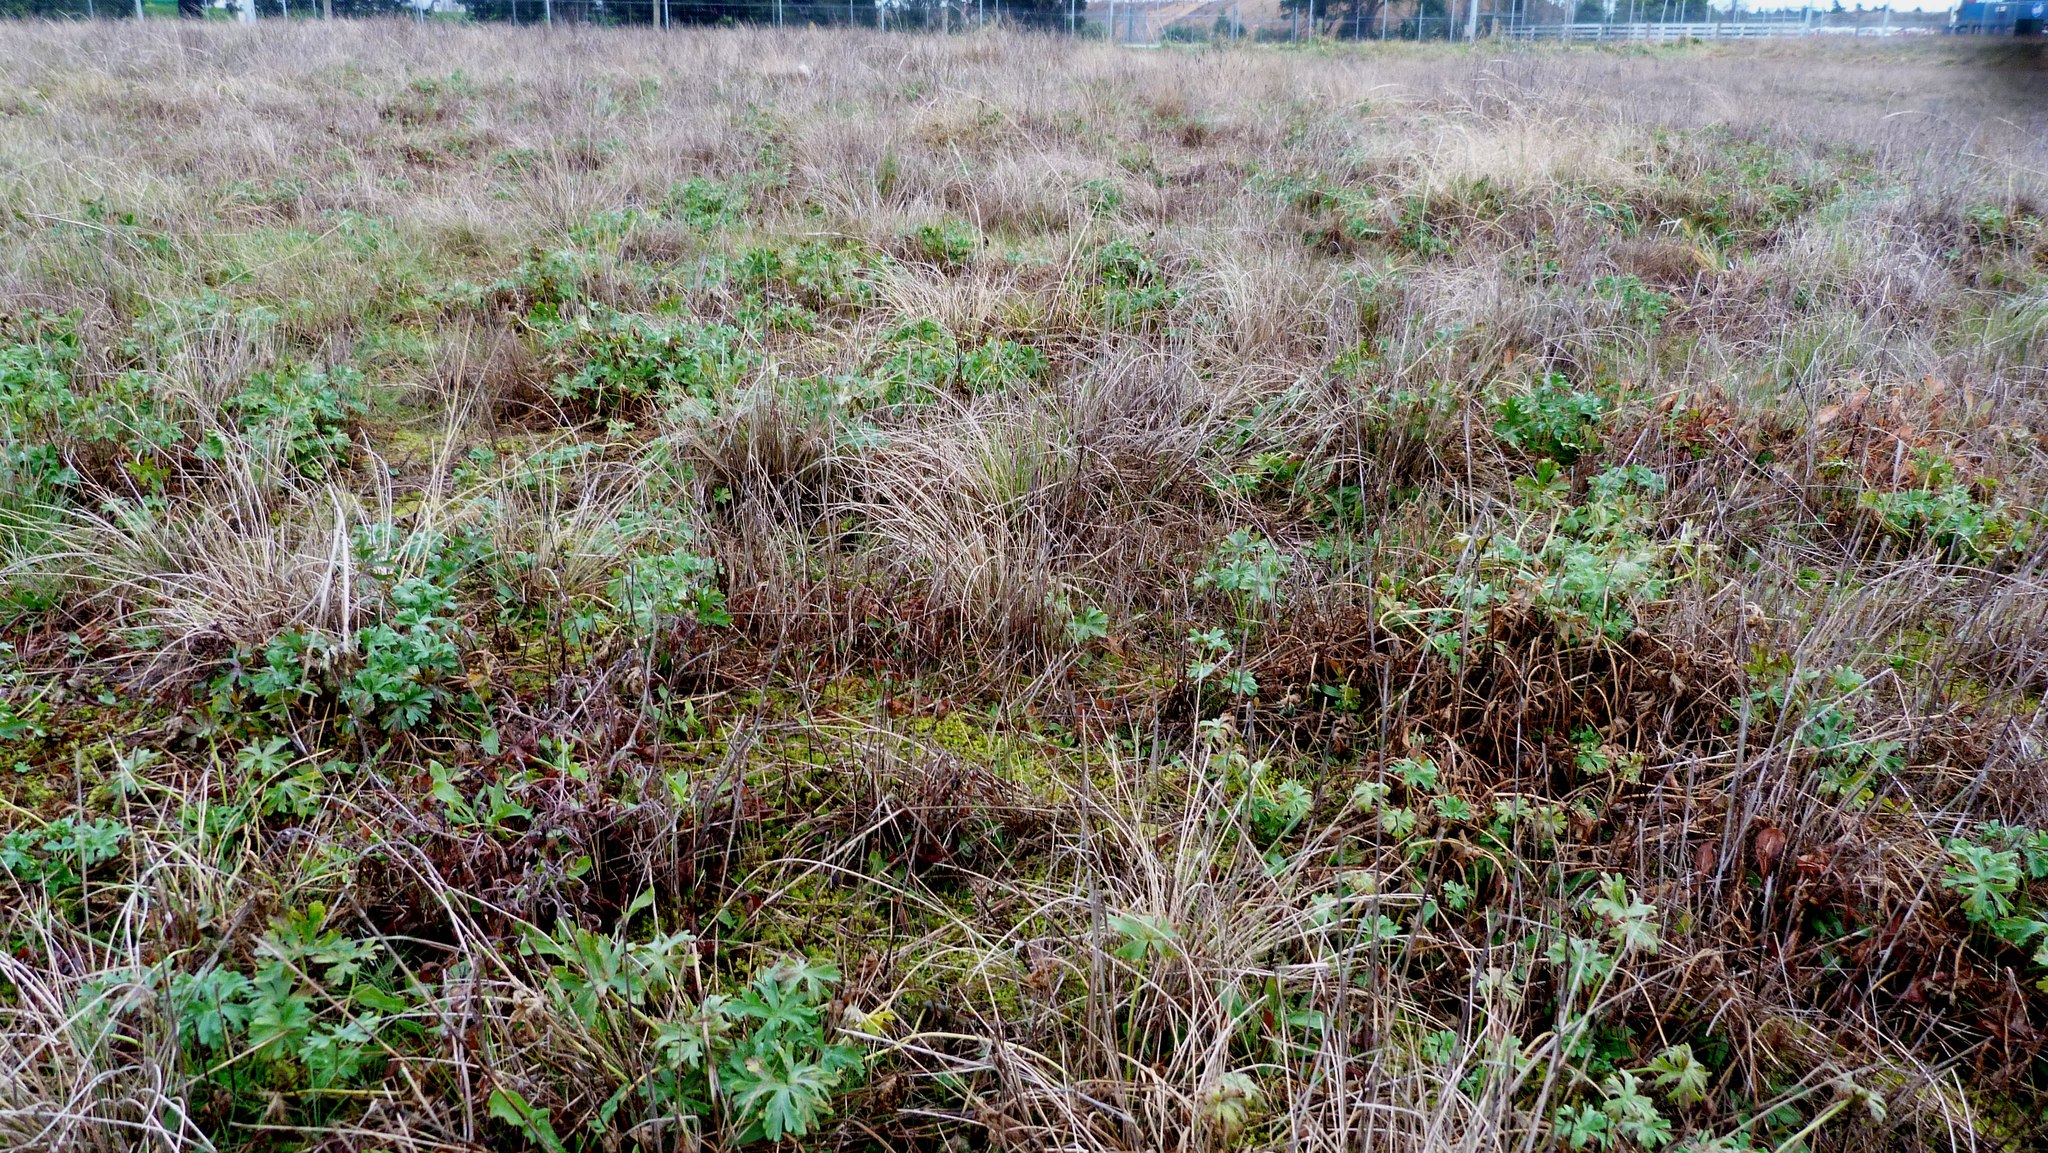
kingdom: Plantae
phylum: Tracheophyta
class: Magnoliopsida
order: Geraniales
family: Geraniaceae
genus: Geranium
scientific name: Geranium retrorsum
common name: New zealand geranium
